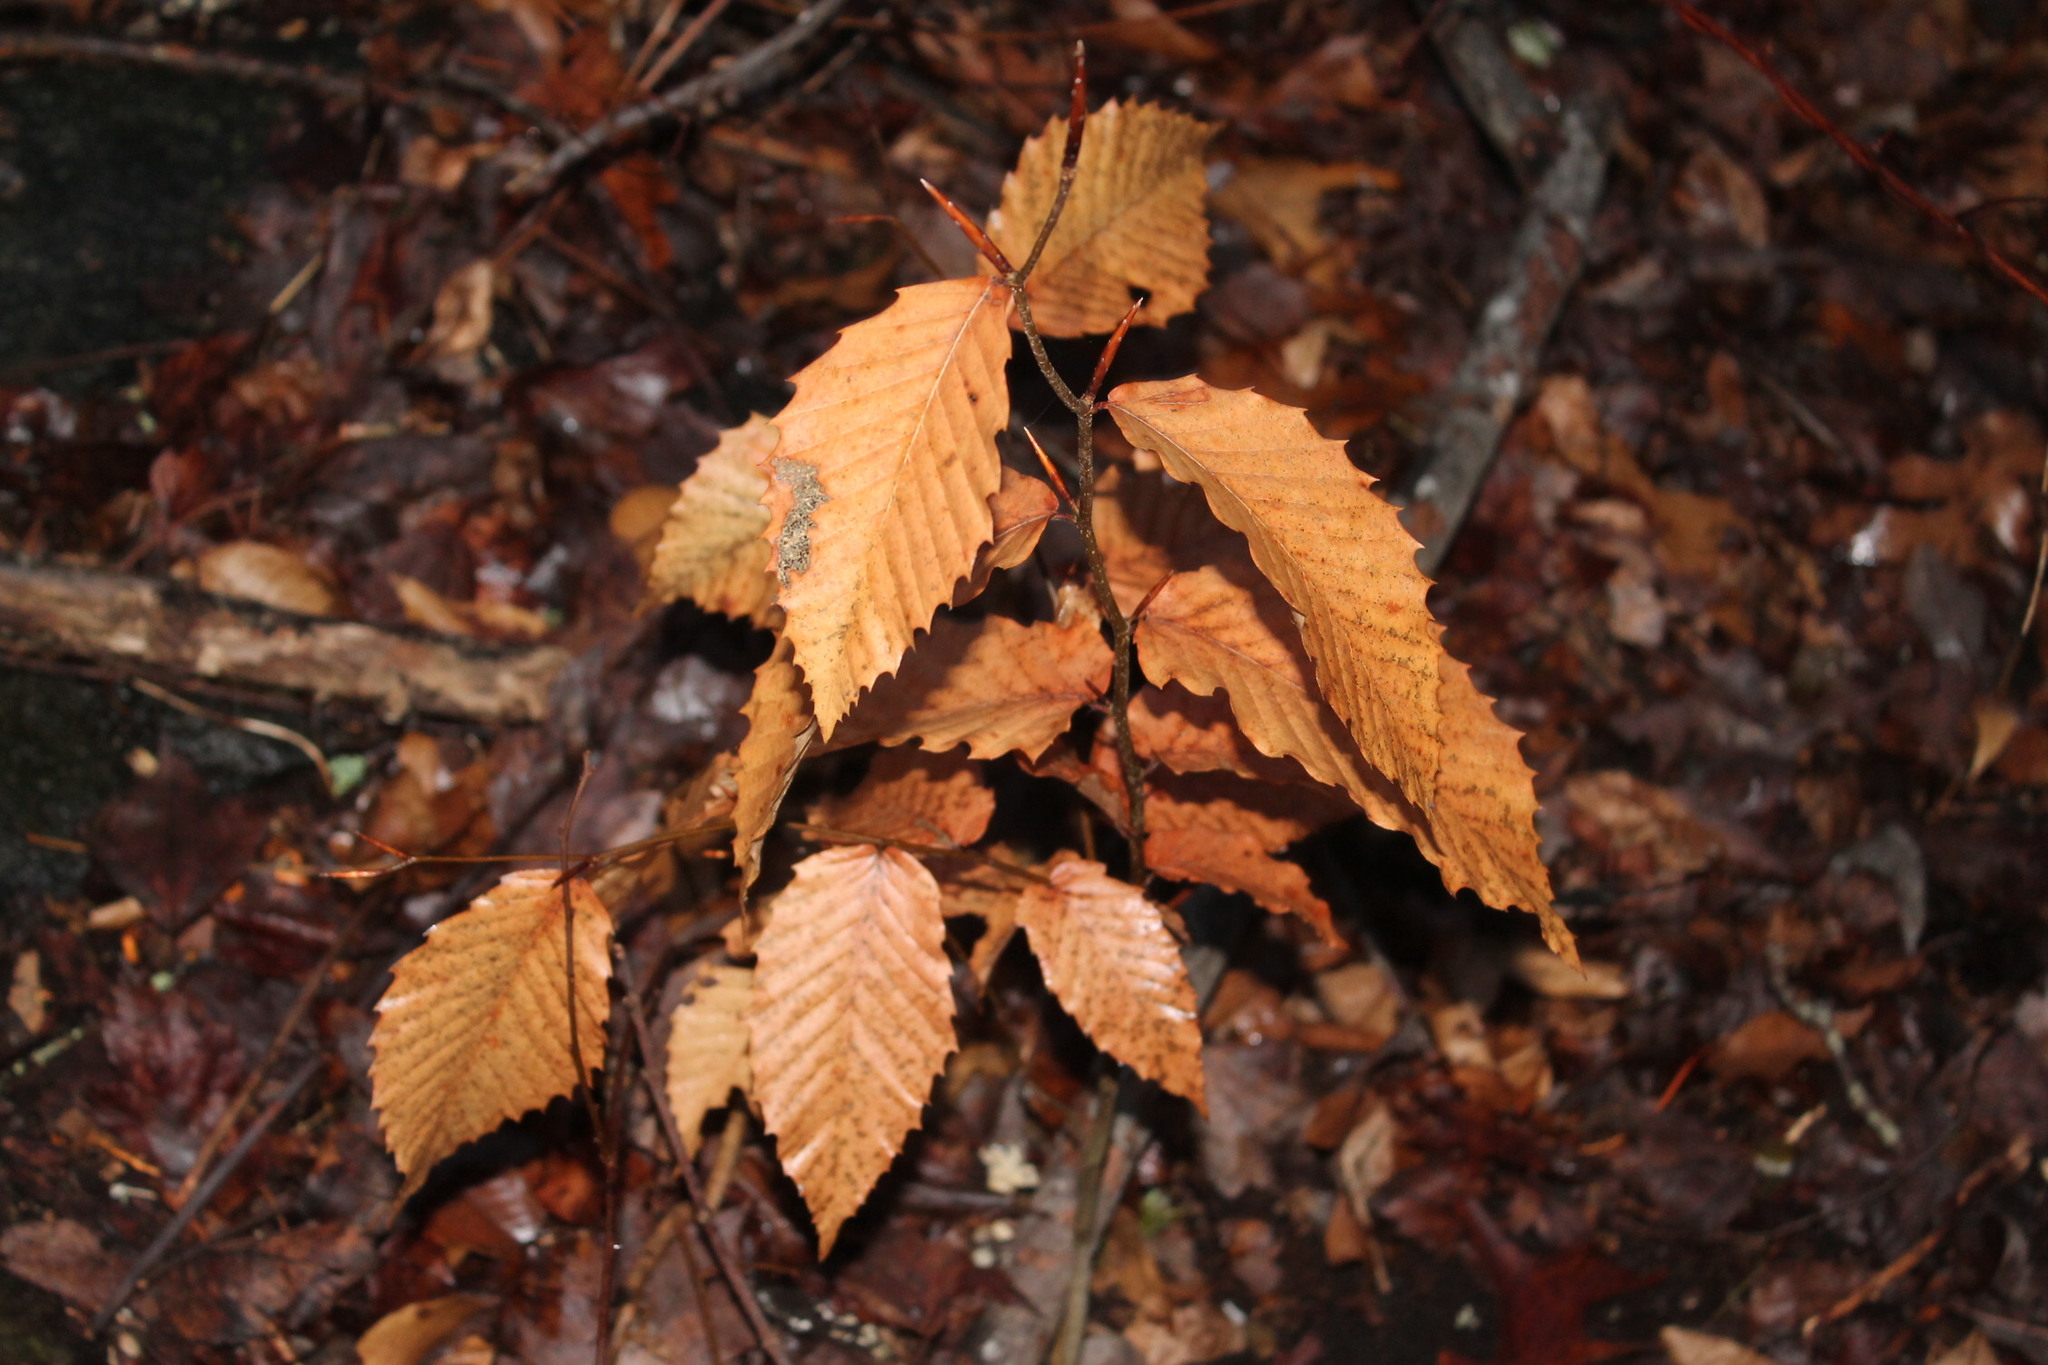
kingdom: Plantae
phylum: Tracheophyta
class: Magnoliopsida
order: Fagales
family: Fagaceae
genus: Fagus
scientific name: Fagus grandifolia
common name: American beech
